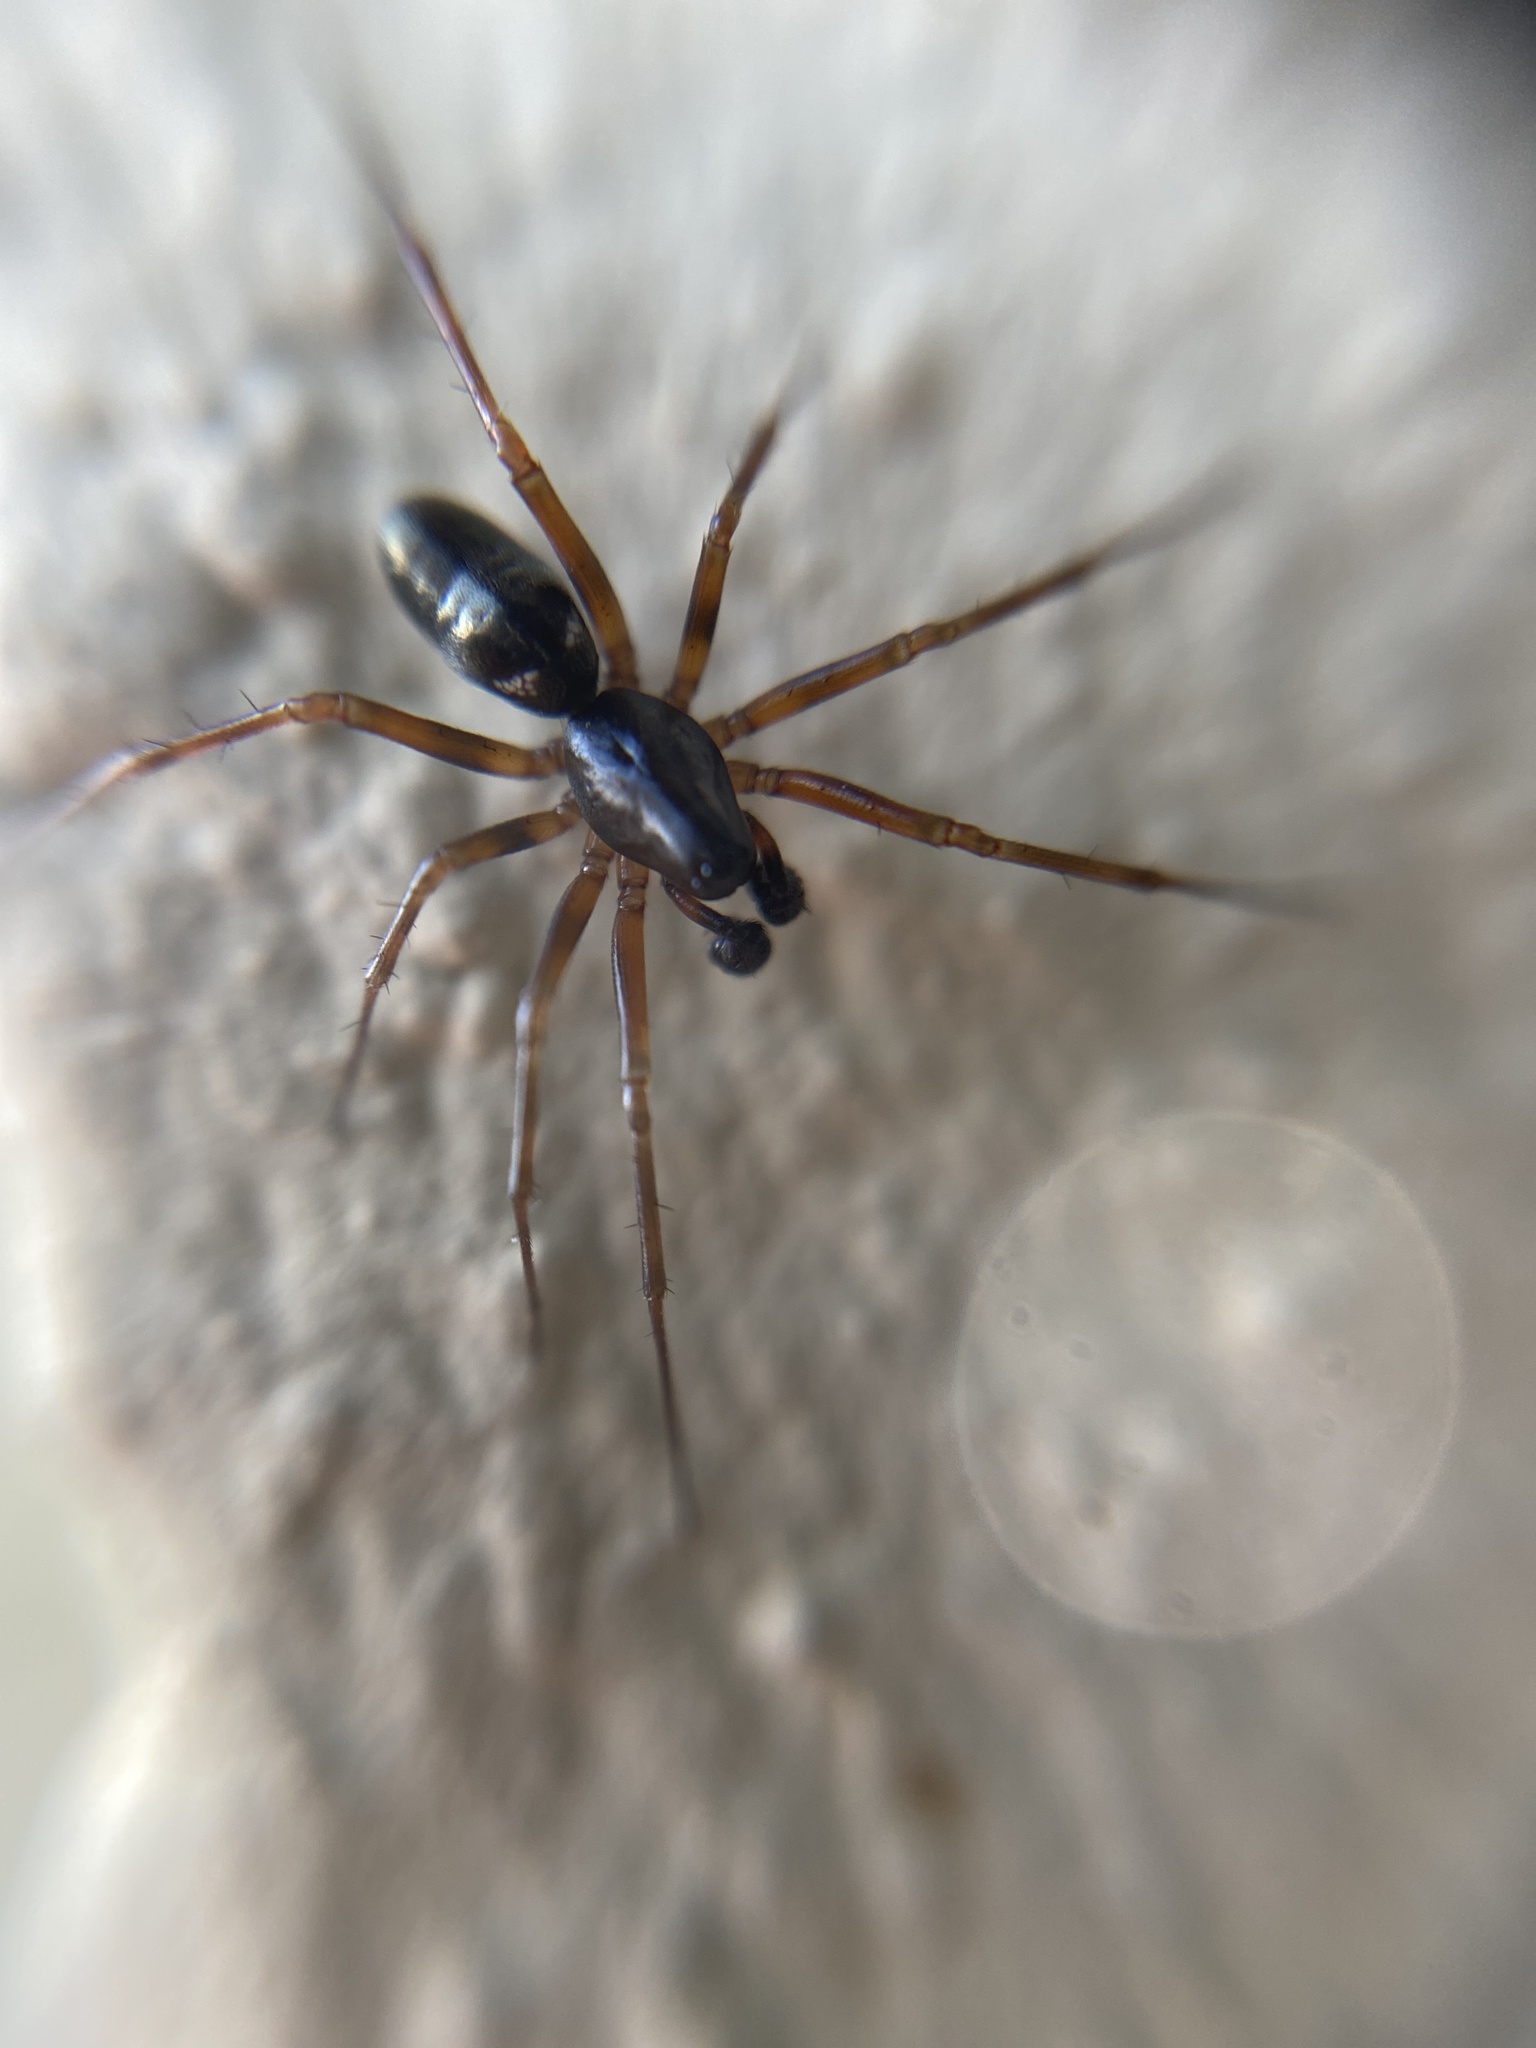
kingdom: Animalia
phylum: Arthropoda
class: Arachnida
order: Araneae
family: Linyphiidae
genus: Neriene
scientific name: Neriene clathrata
